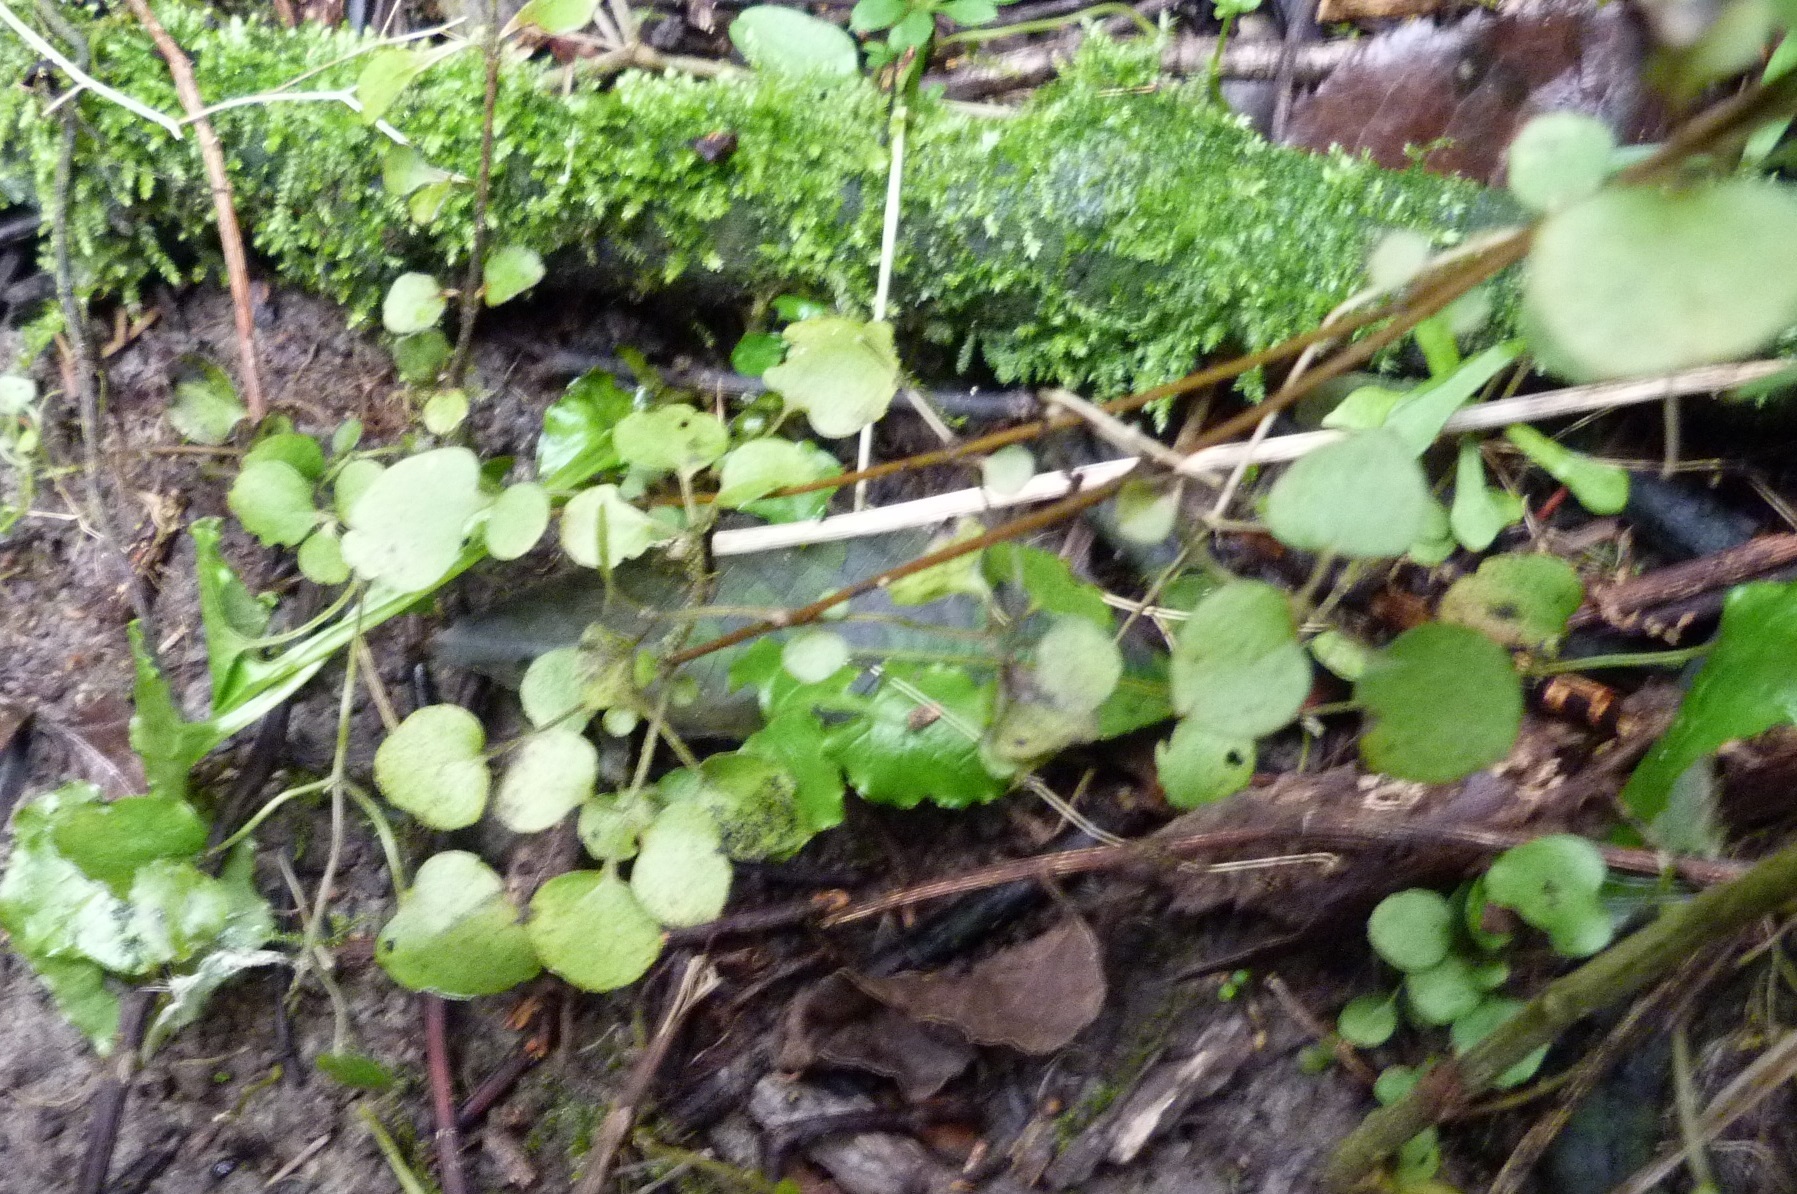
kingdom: Plantae
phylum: Tracheophyta
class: Magnoliopsida
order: Ranunculales
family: Ranunculaceae
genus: Clematis
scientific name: Clematis foetida
